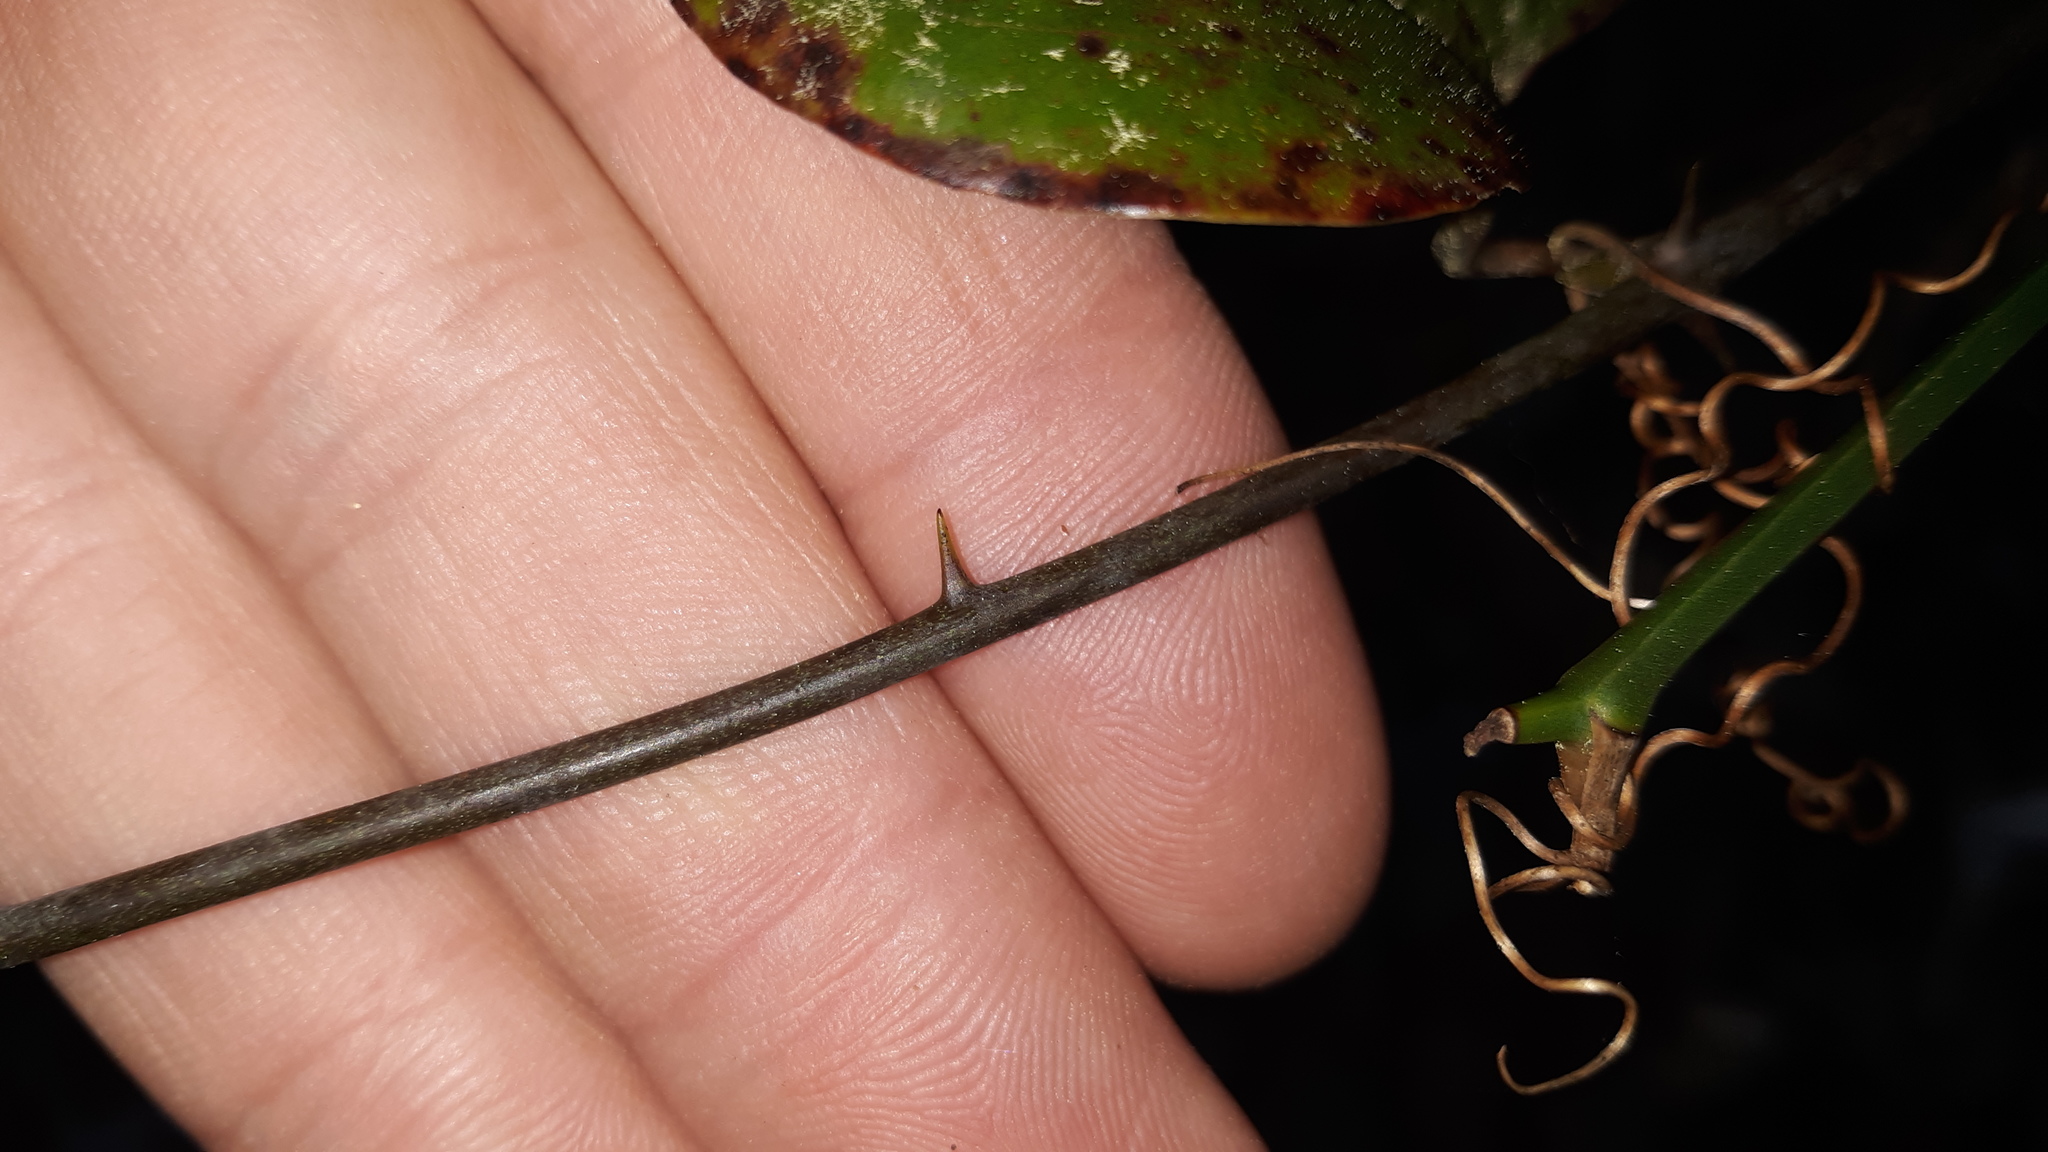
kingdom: Plantae
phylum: Tracheophyta
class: Liliopsida
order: Liliales
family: Smilacaceae
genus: Smilax
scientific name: Smilax glauca
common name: Cat greenbrier
